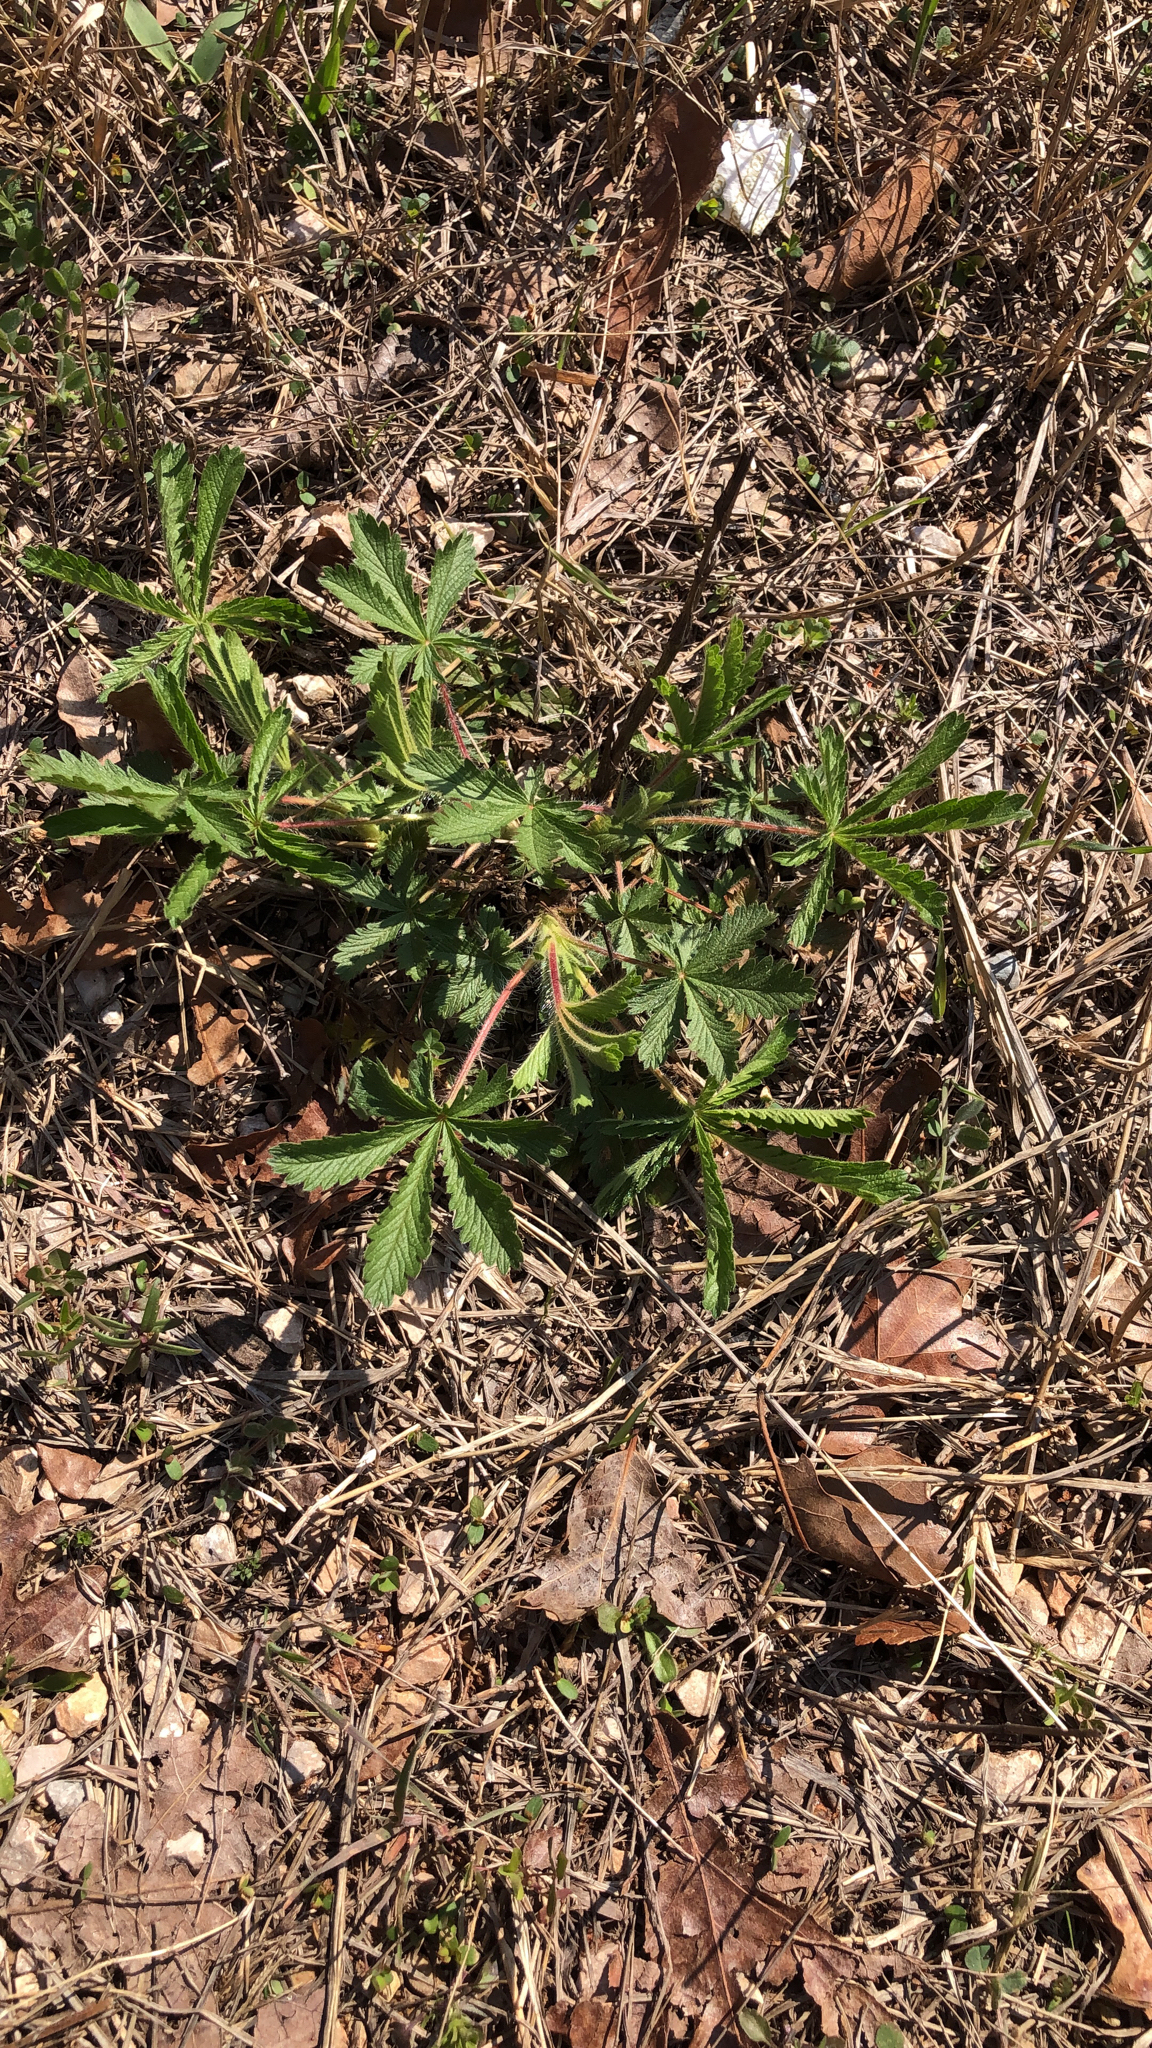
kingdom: Plantae
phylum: Tracheophyta
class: Magnoliopsida
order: Rosales
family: Rosaceae
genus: Potentilla
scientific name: Potentilla recta
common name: Sulphur cinquefoil
